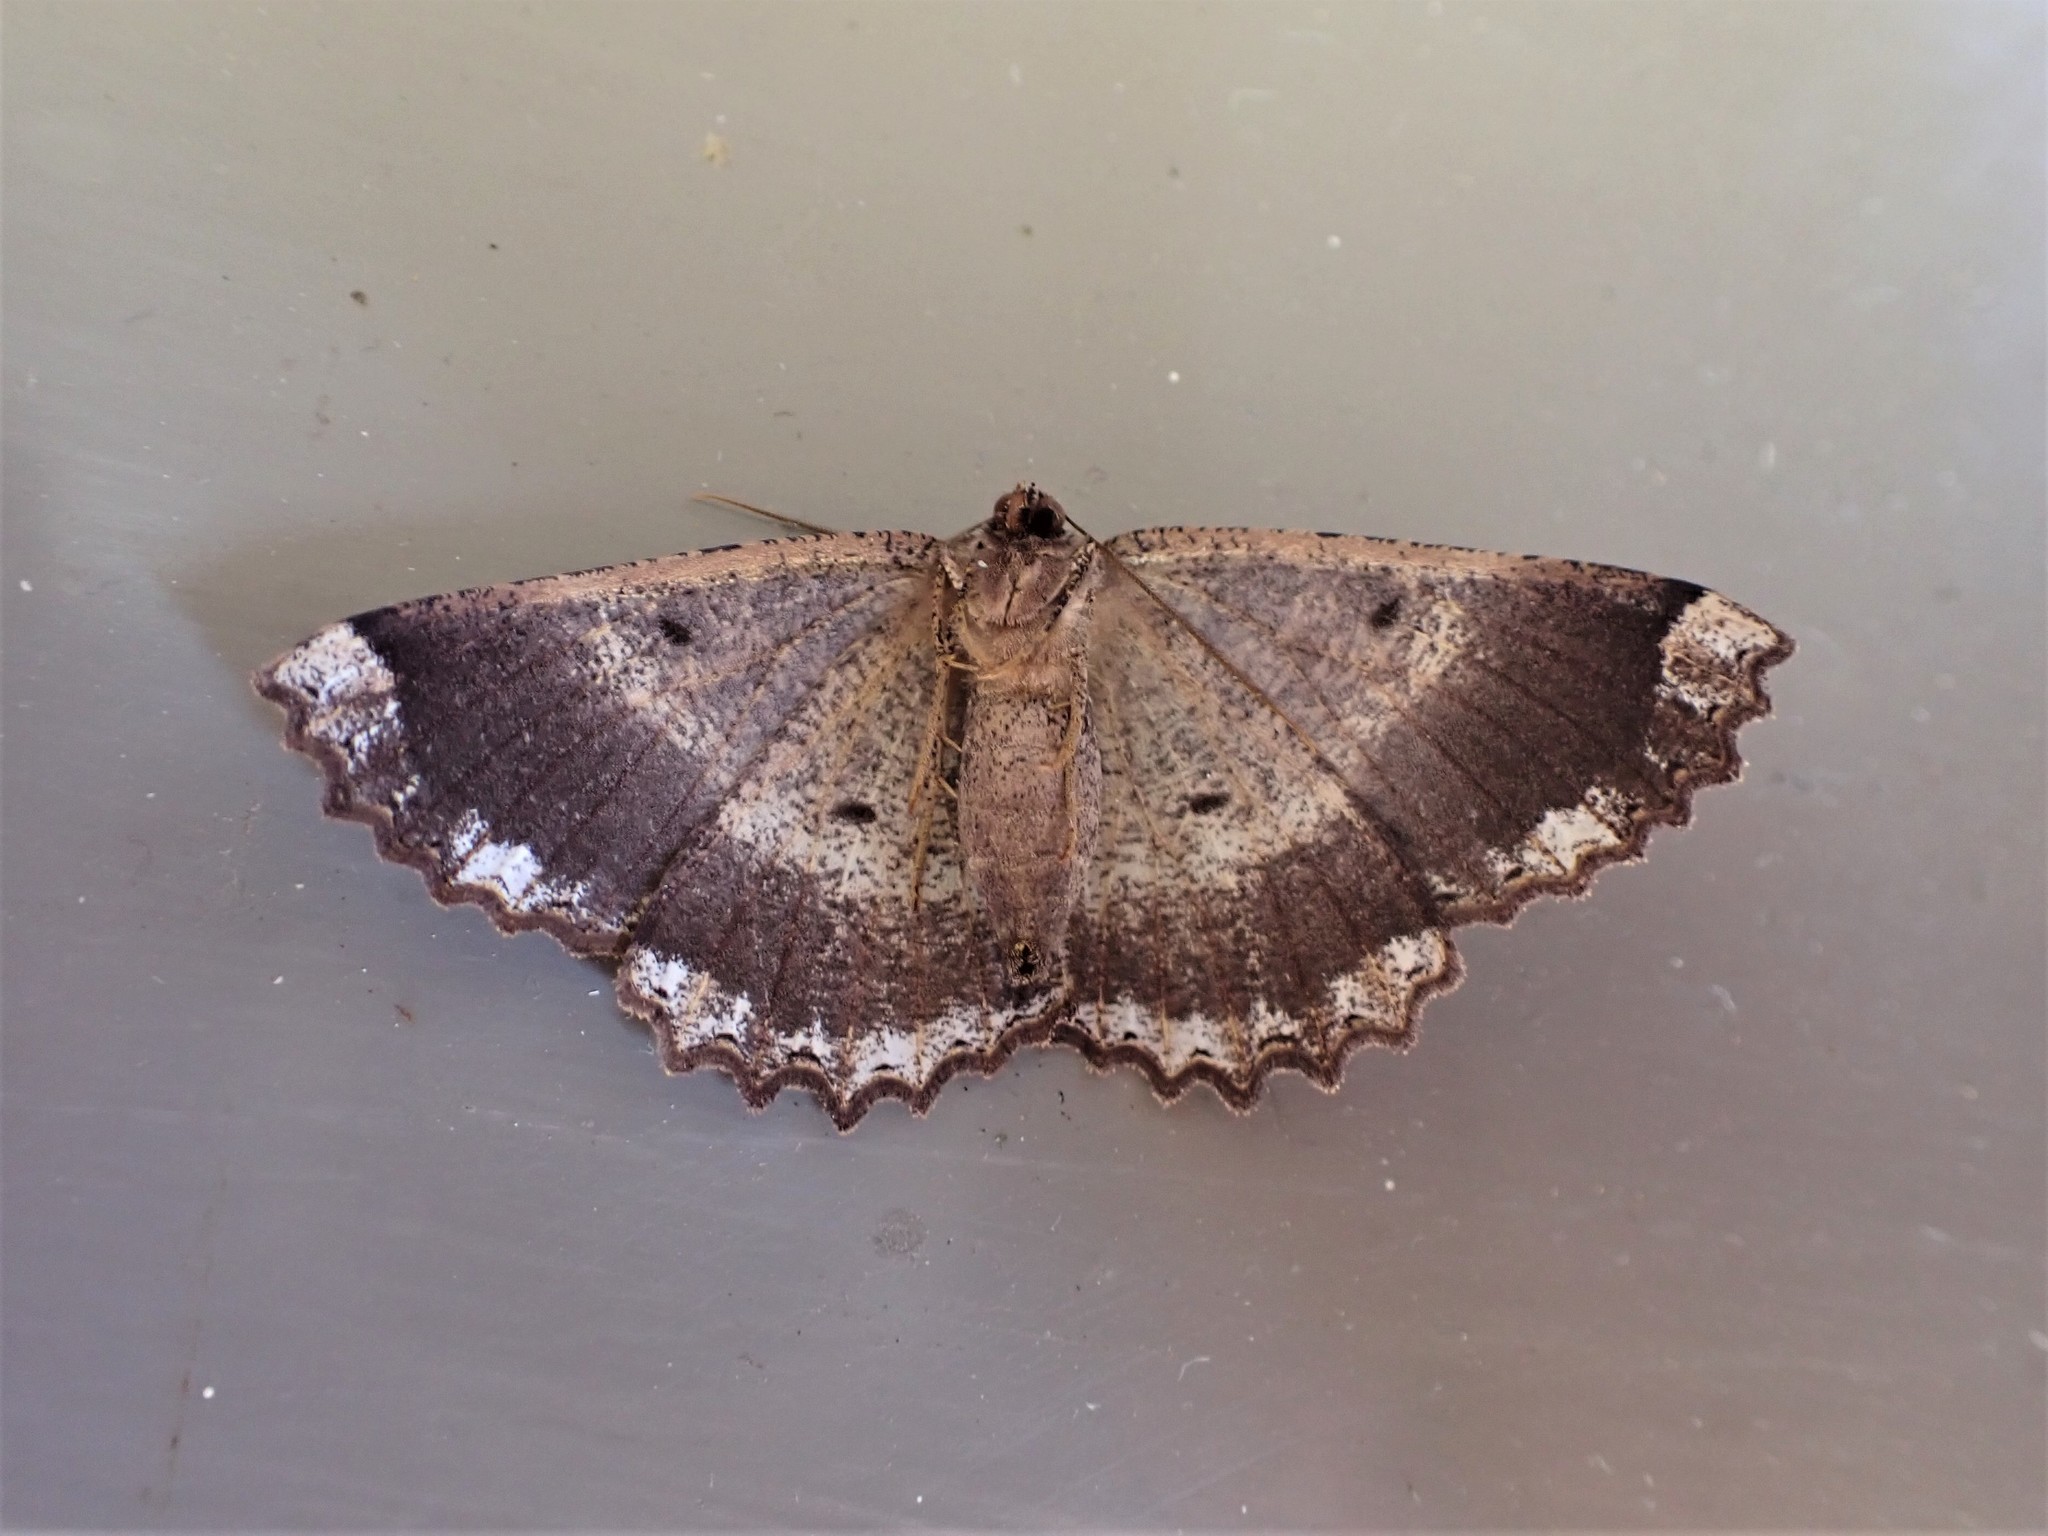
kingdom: Animalia
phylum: Arthropoda
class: Insecta
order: Lepidoptera
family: Geometridae
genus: Gellonia
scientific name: Gellonia dejectaria
